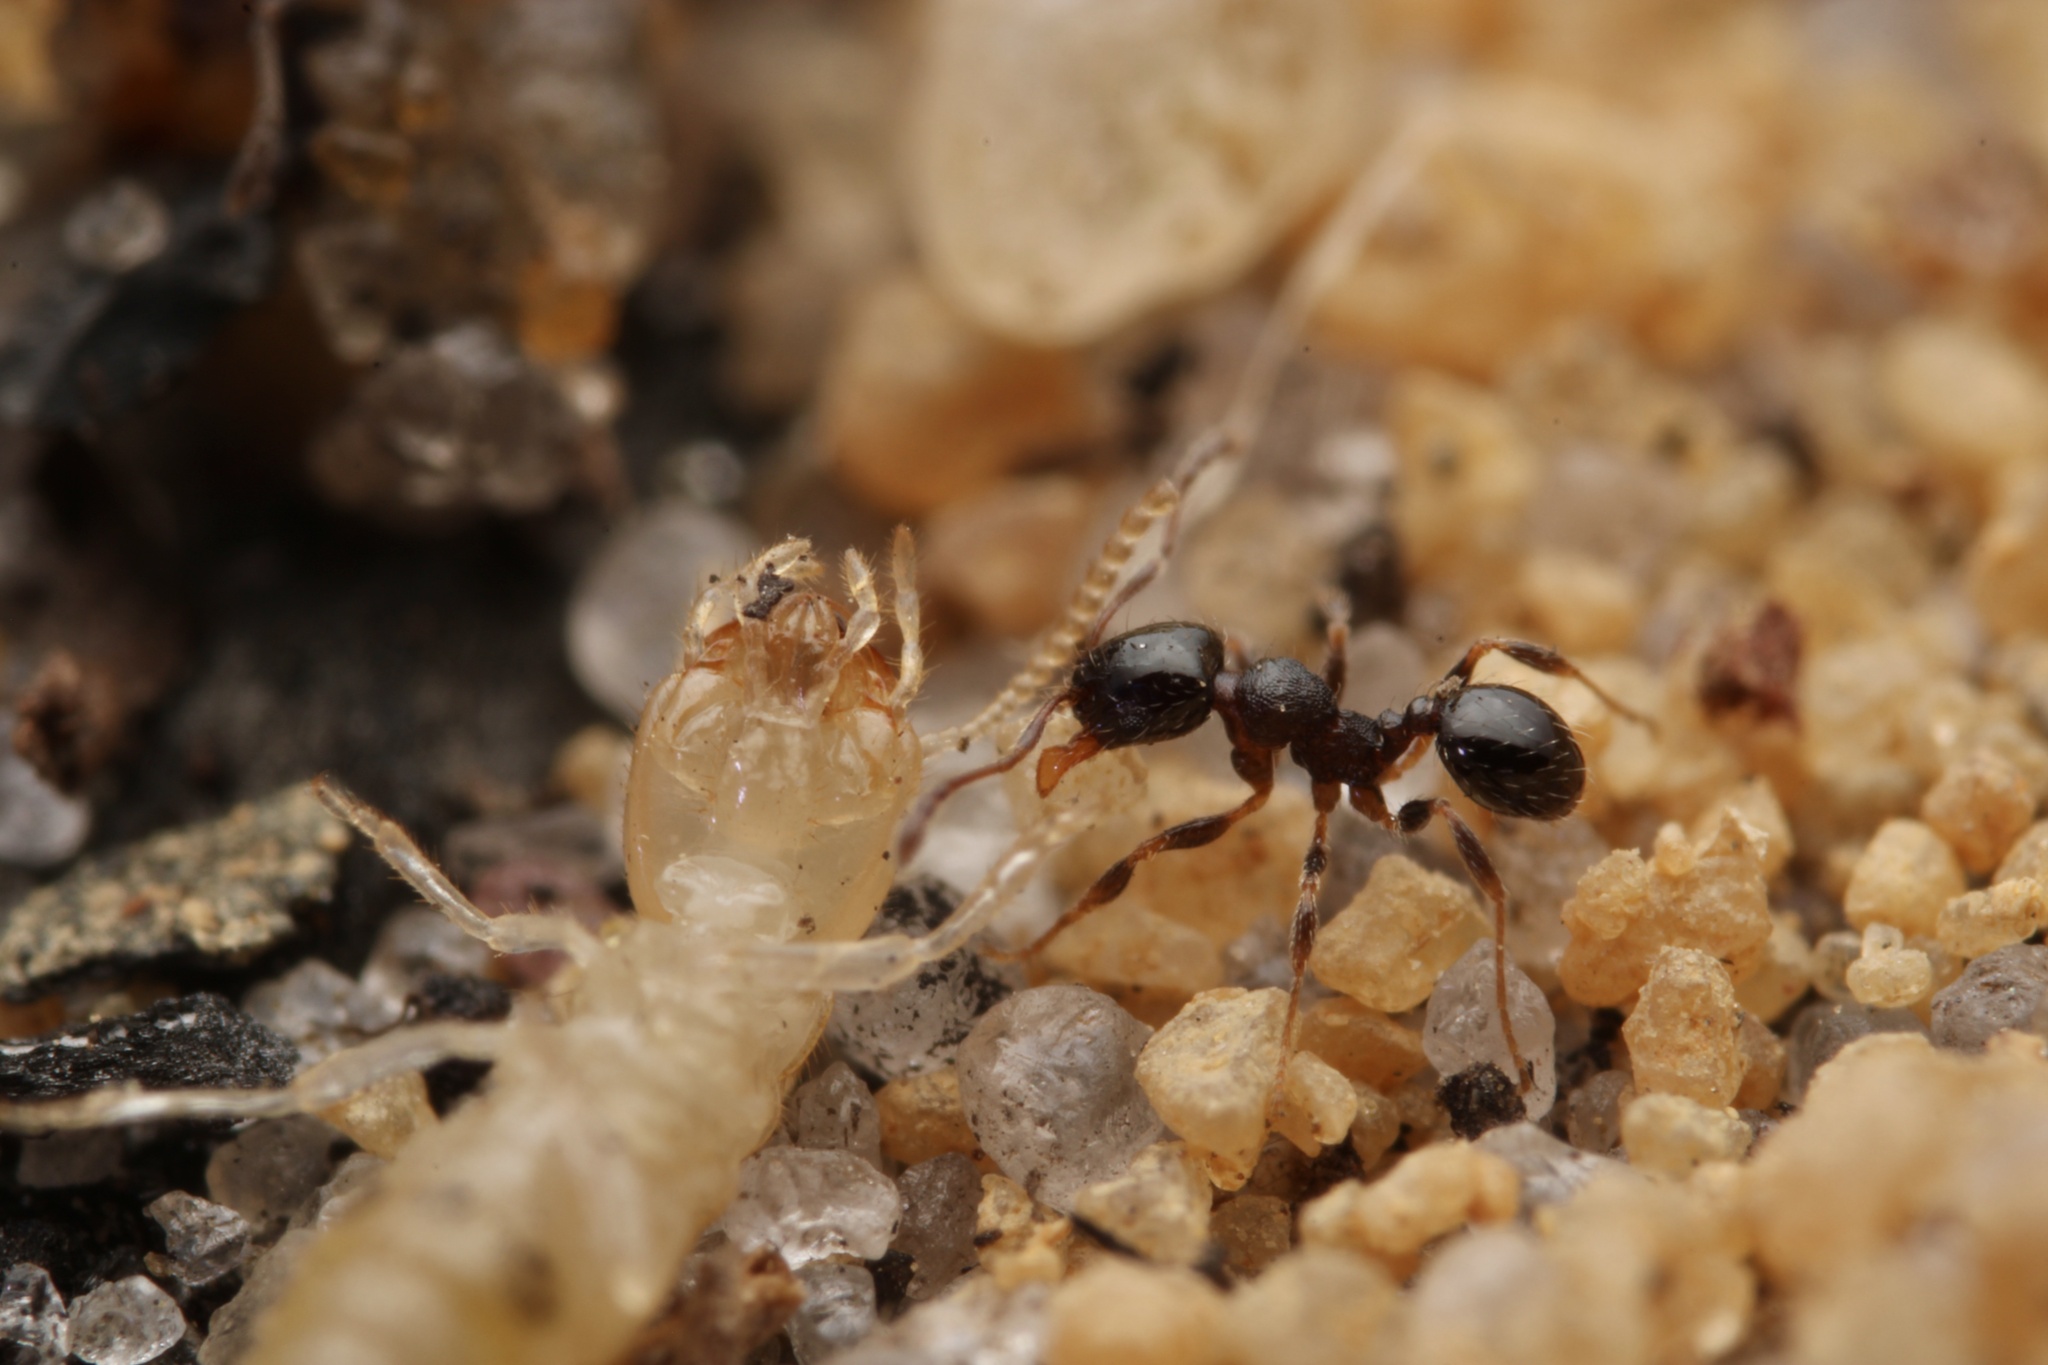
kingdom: Animalia
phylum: Arthropoda
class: Insecta
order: Hymenoptera
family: Formicidae
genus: Pheidole
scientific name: Pheidole davisi
